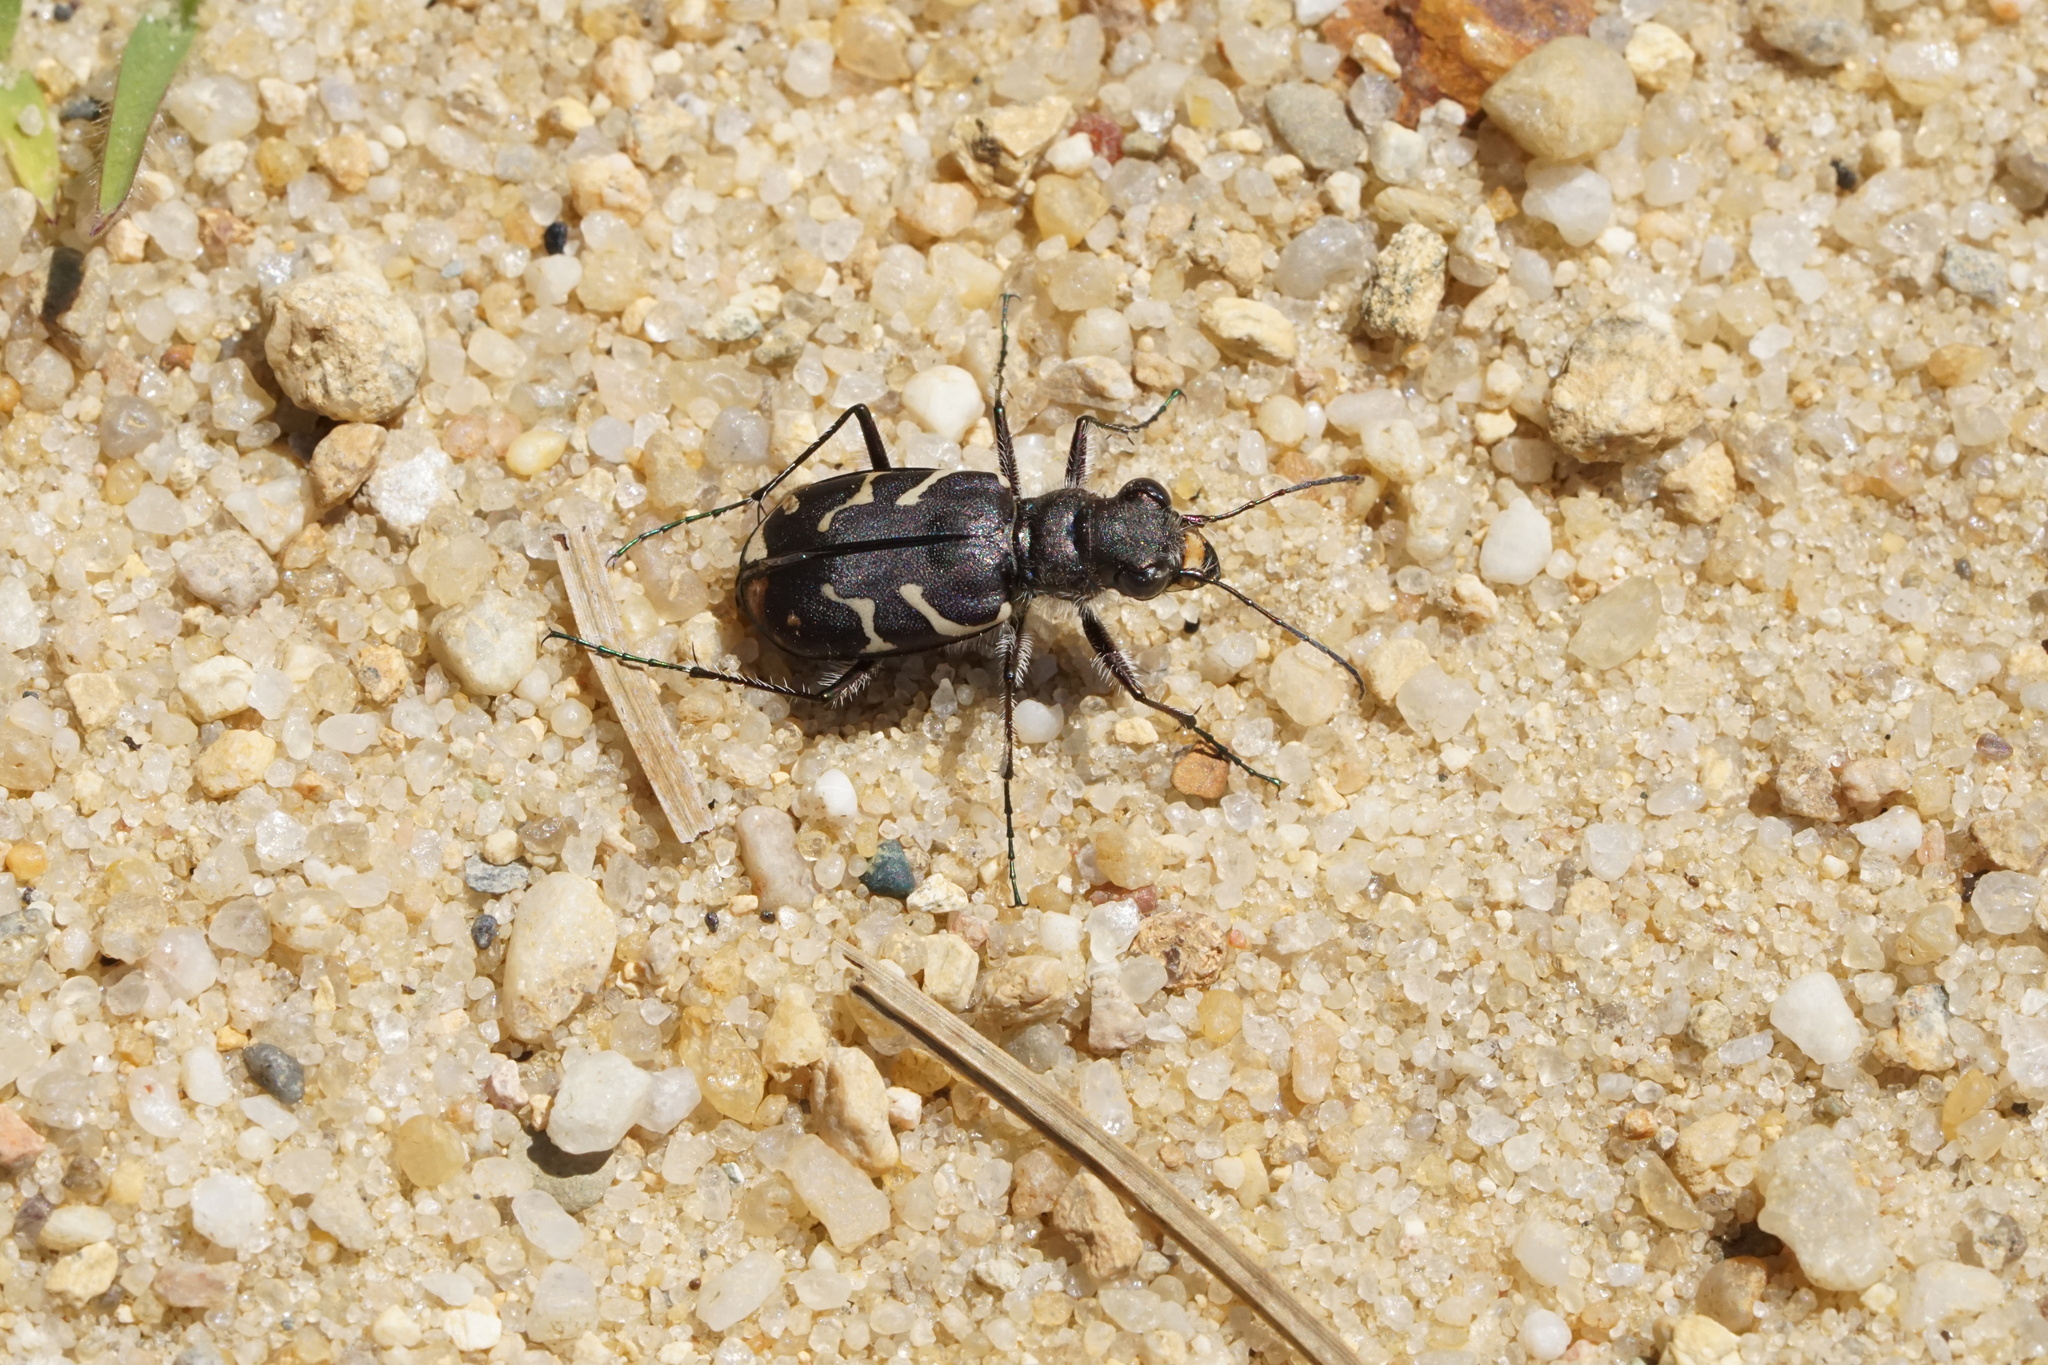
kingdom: Animalia
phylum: Arthropoda
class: Insecta
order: Coleoptera
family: Carabidae
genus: Cicindela
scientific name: Cicindela tranquebarica
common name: Oblique-lined tiger beetle
